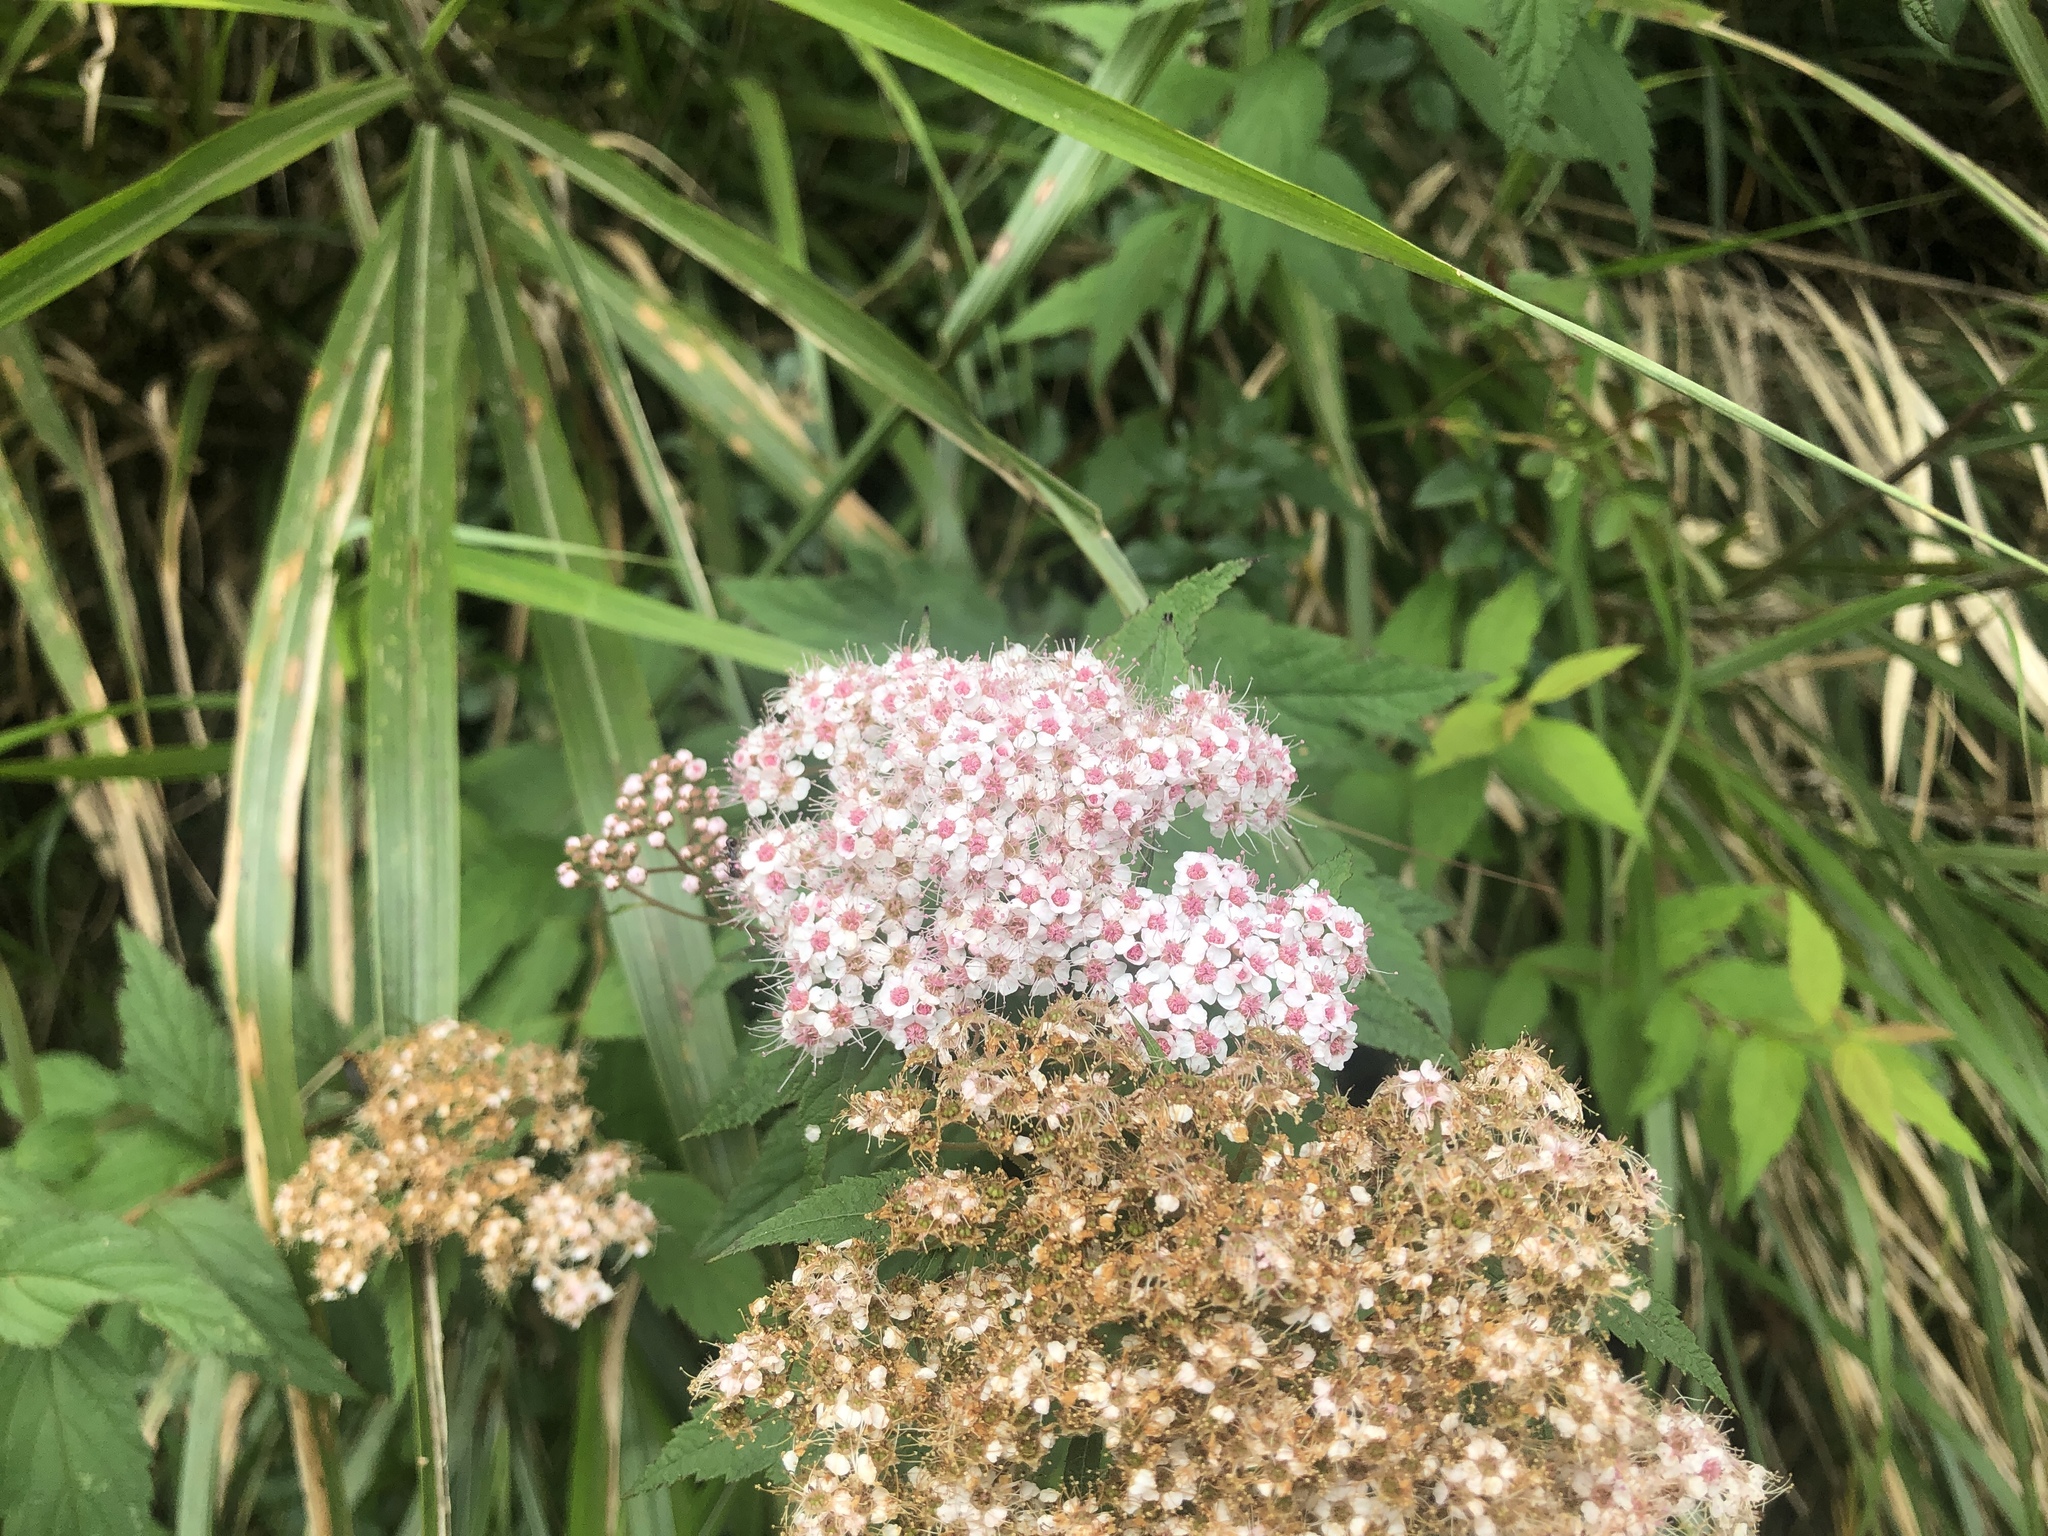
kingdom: Plantae
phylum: Tracheophyta
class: Magnoliopsida
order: Rosales
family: Rosaceae
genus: Spiraea
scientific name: Spiraea japonica
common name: Japanese spiraea
